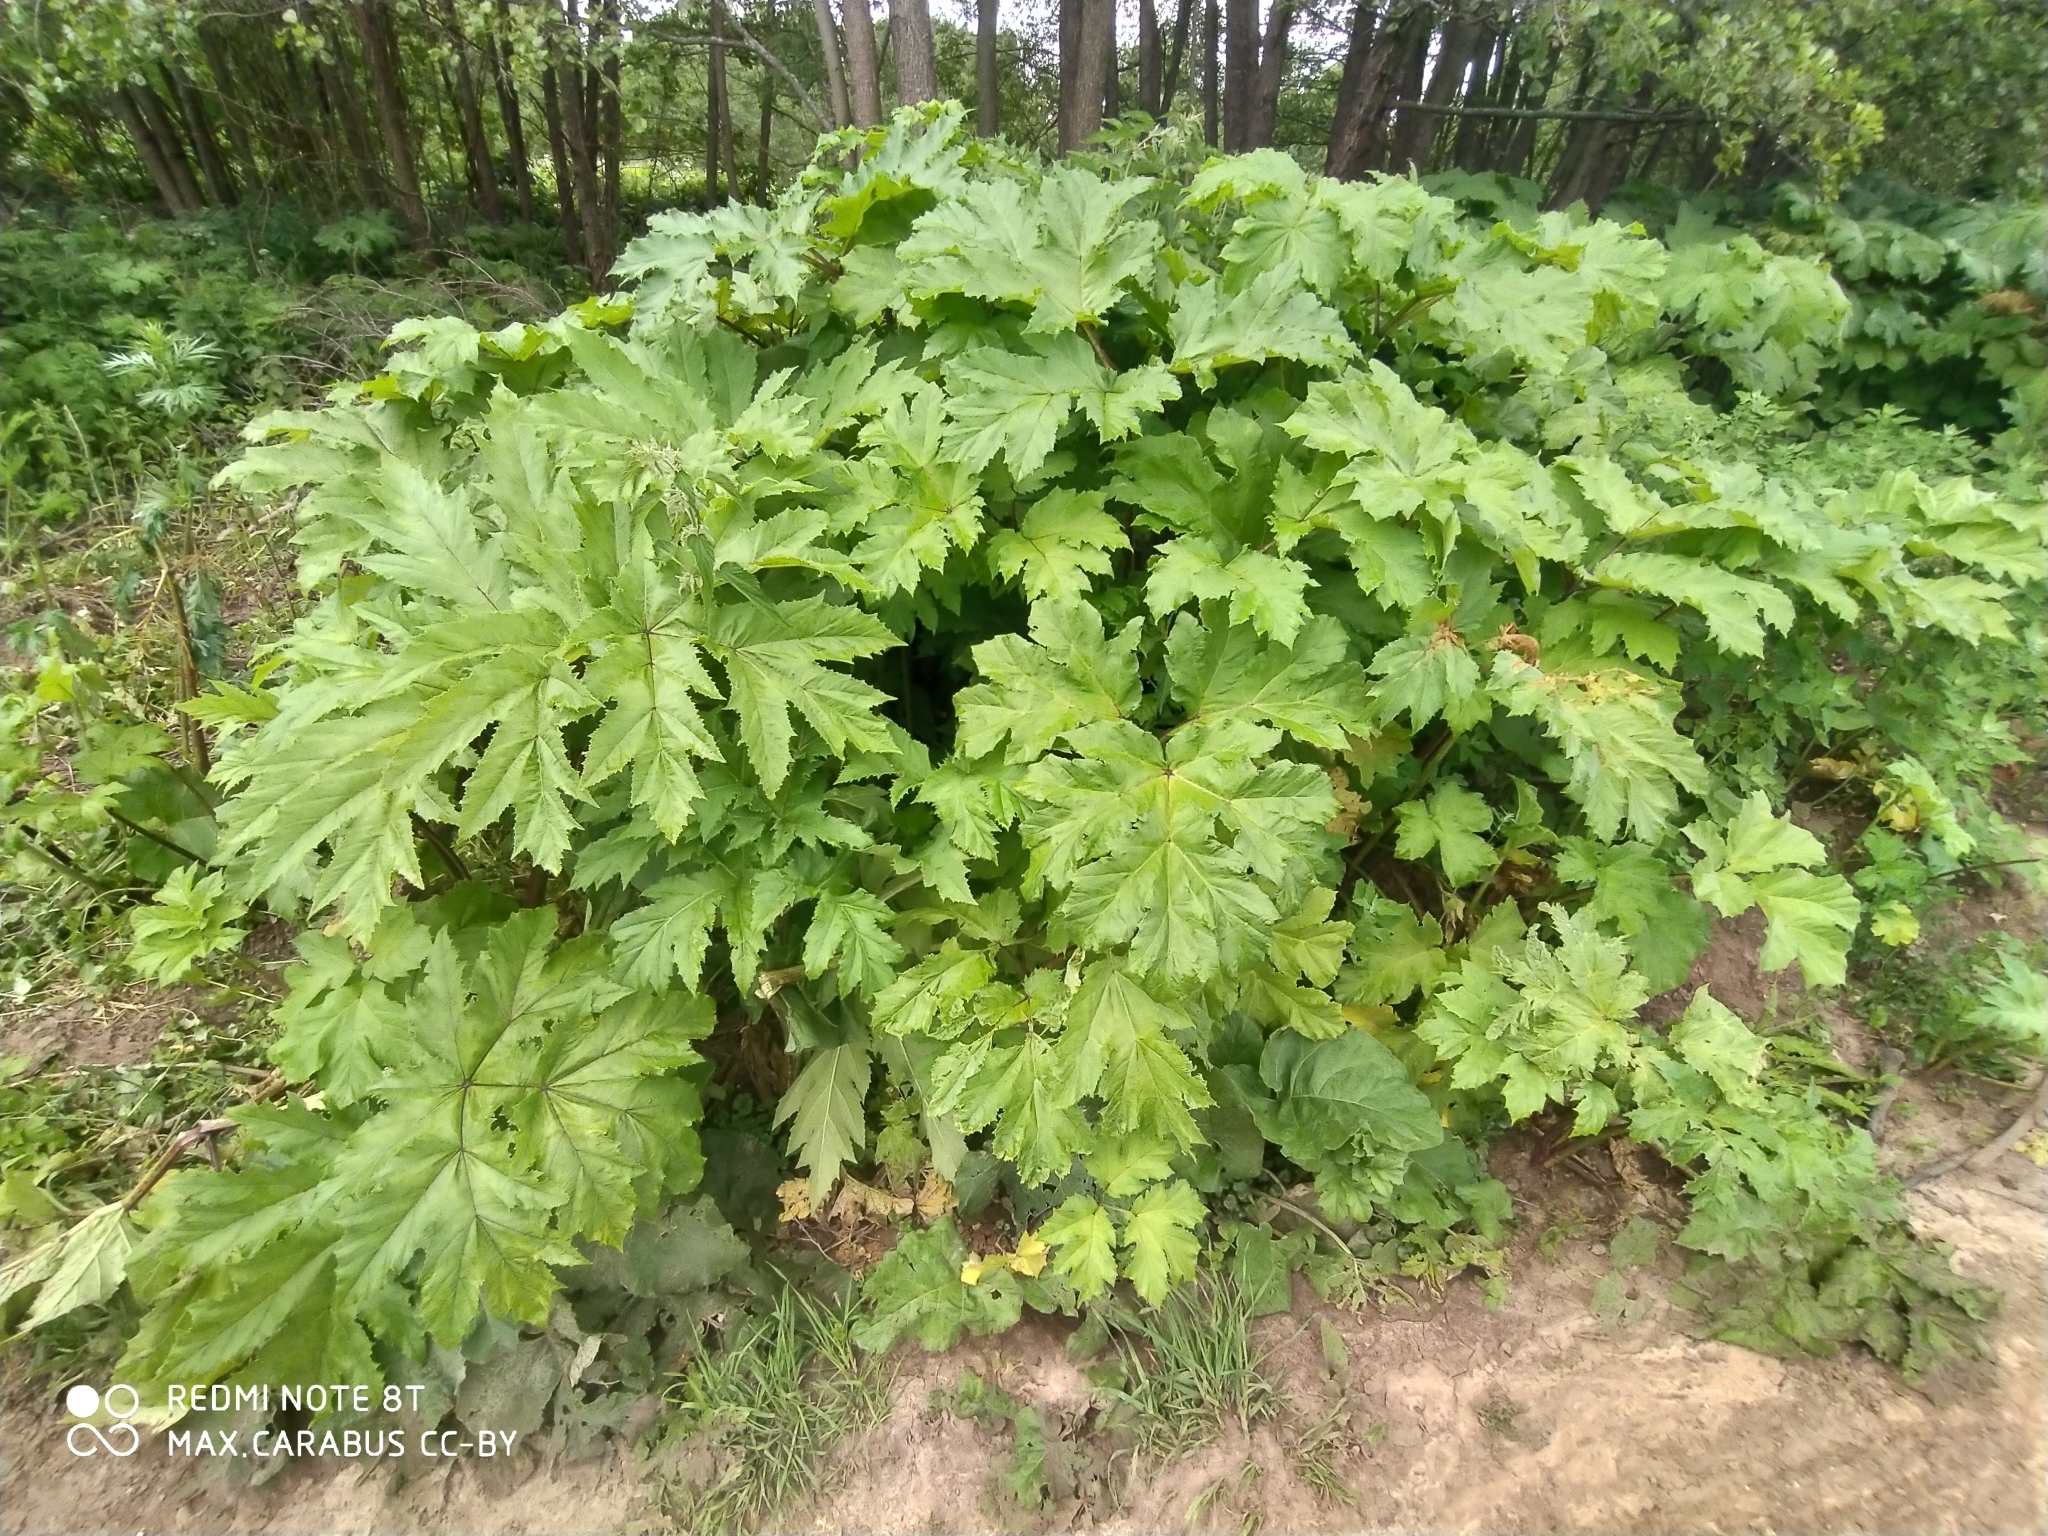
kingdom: Plantae
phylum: Tracheophyta
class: Magnoliopsida
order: Apiales
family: Apiaceae
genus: Heracleum
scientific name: Heracleum sosnowskyi
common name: Sosnowsky's hogweed
